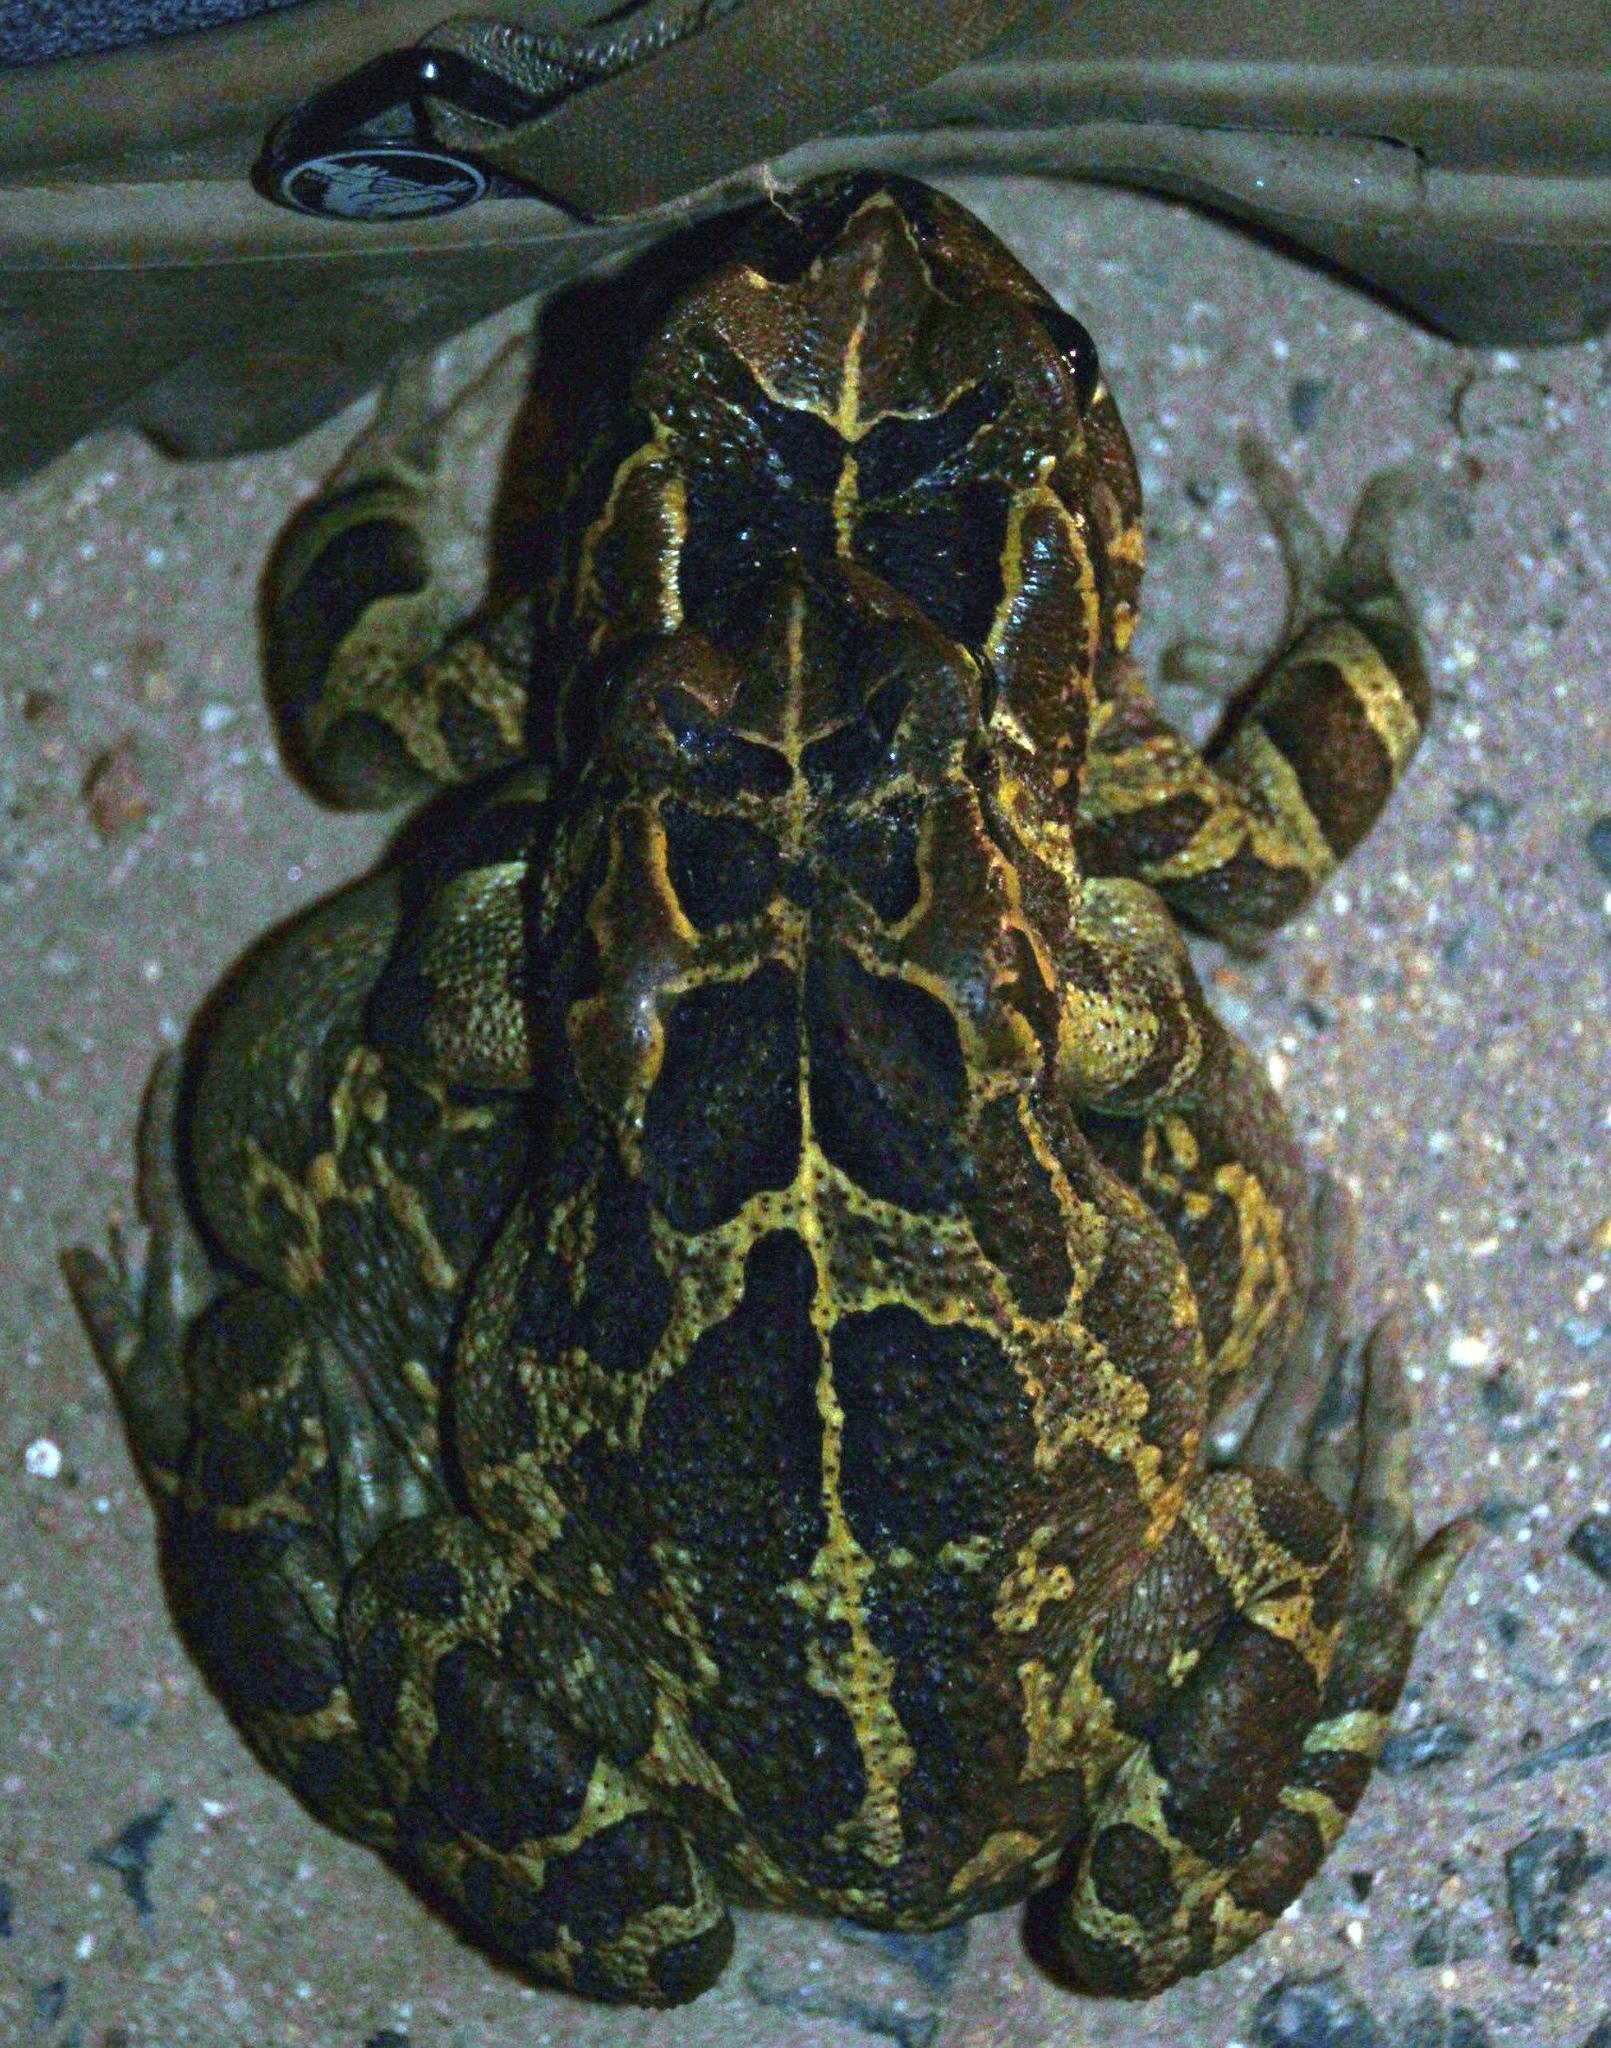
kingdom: Animalia
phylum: Chordata
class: Amphibia
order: Anura
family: Bufonidae
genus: Sclerophrys
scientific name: Sclerophrys pantherina
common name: Panther toad
